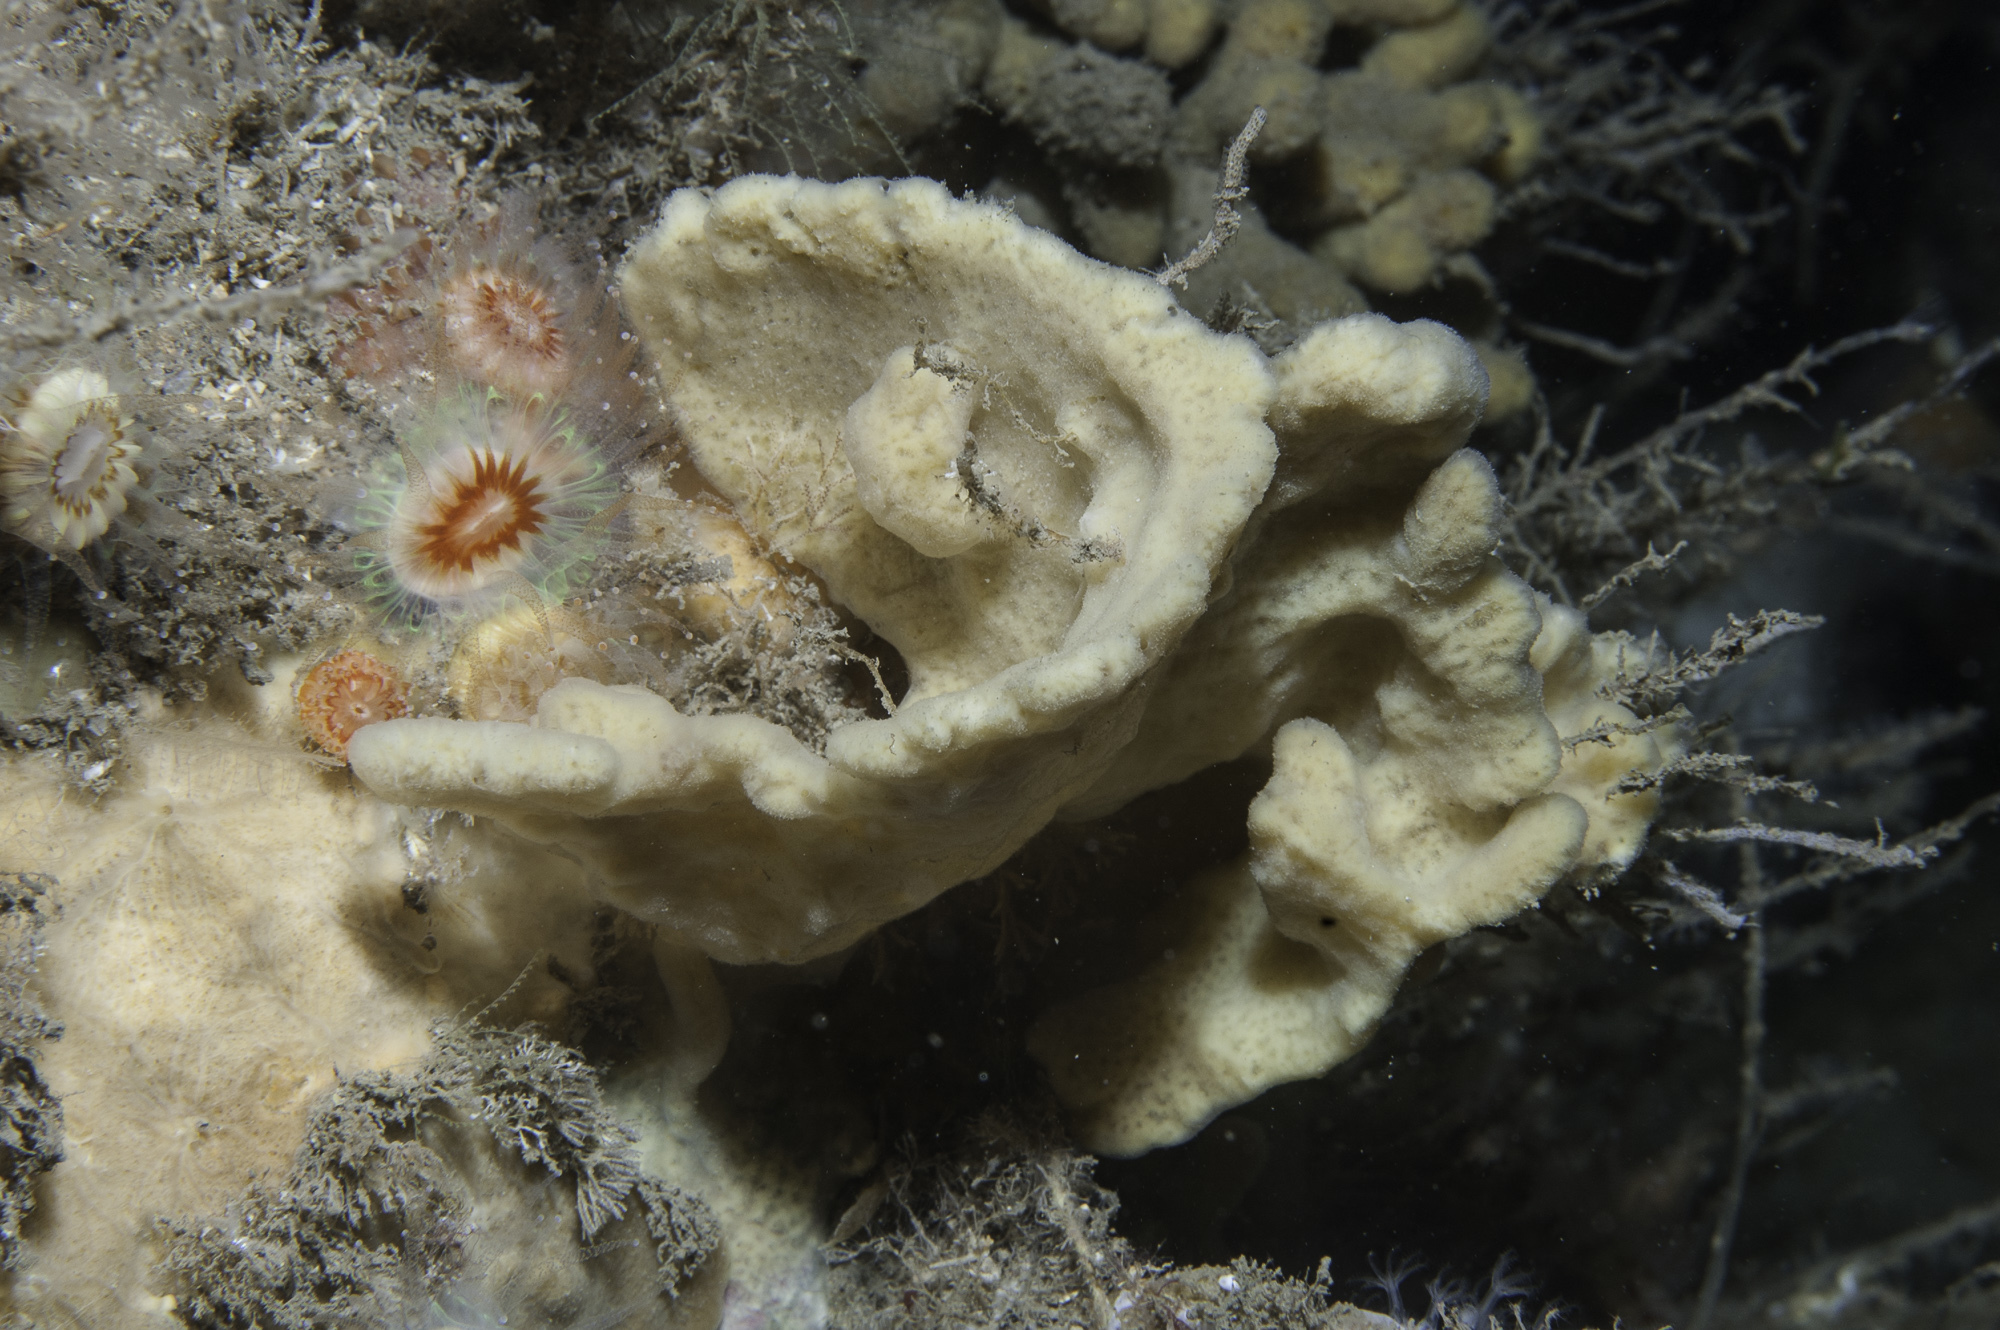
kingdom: Animalia
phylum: Porifera
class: Demospongiae
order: Poecilosclerida
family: Microcionidae
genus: Clathria
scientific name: Clathria barleei
